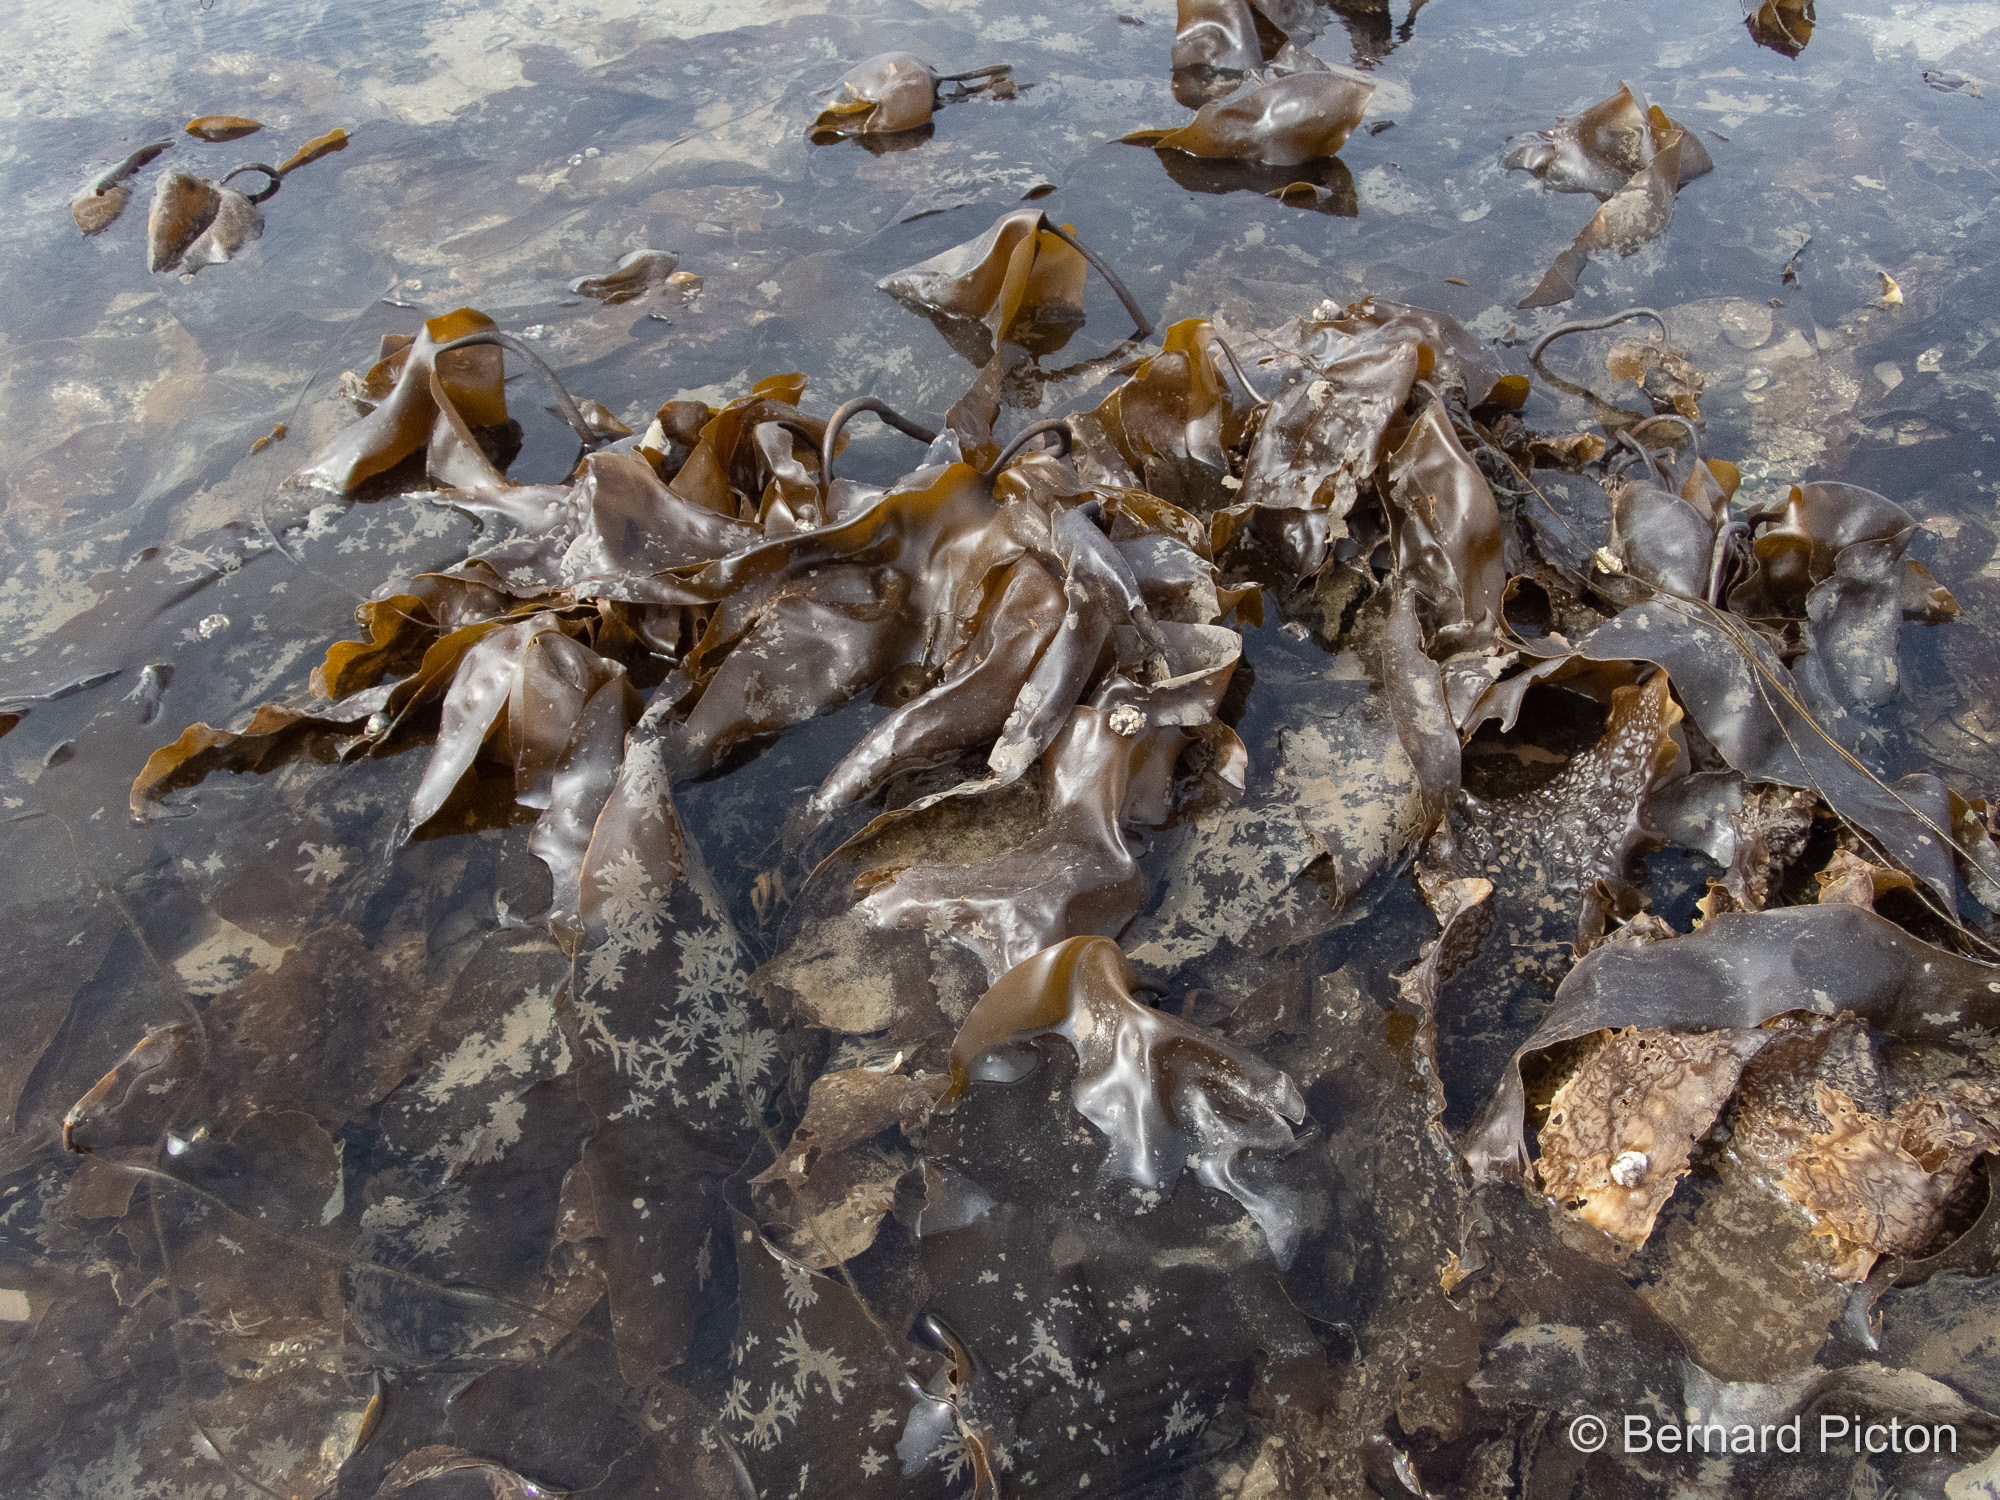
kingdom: Chromista
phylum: Ochrophyta
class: Phaeophyceae
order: Laminariales
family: Laminariaceae
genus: Laminaria
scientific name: Laminaria digitata
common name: Oarweed
